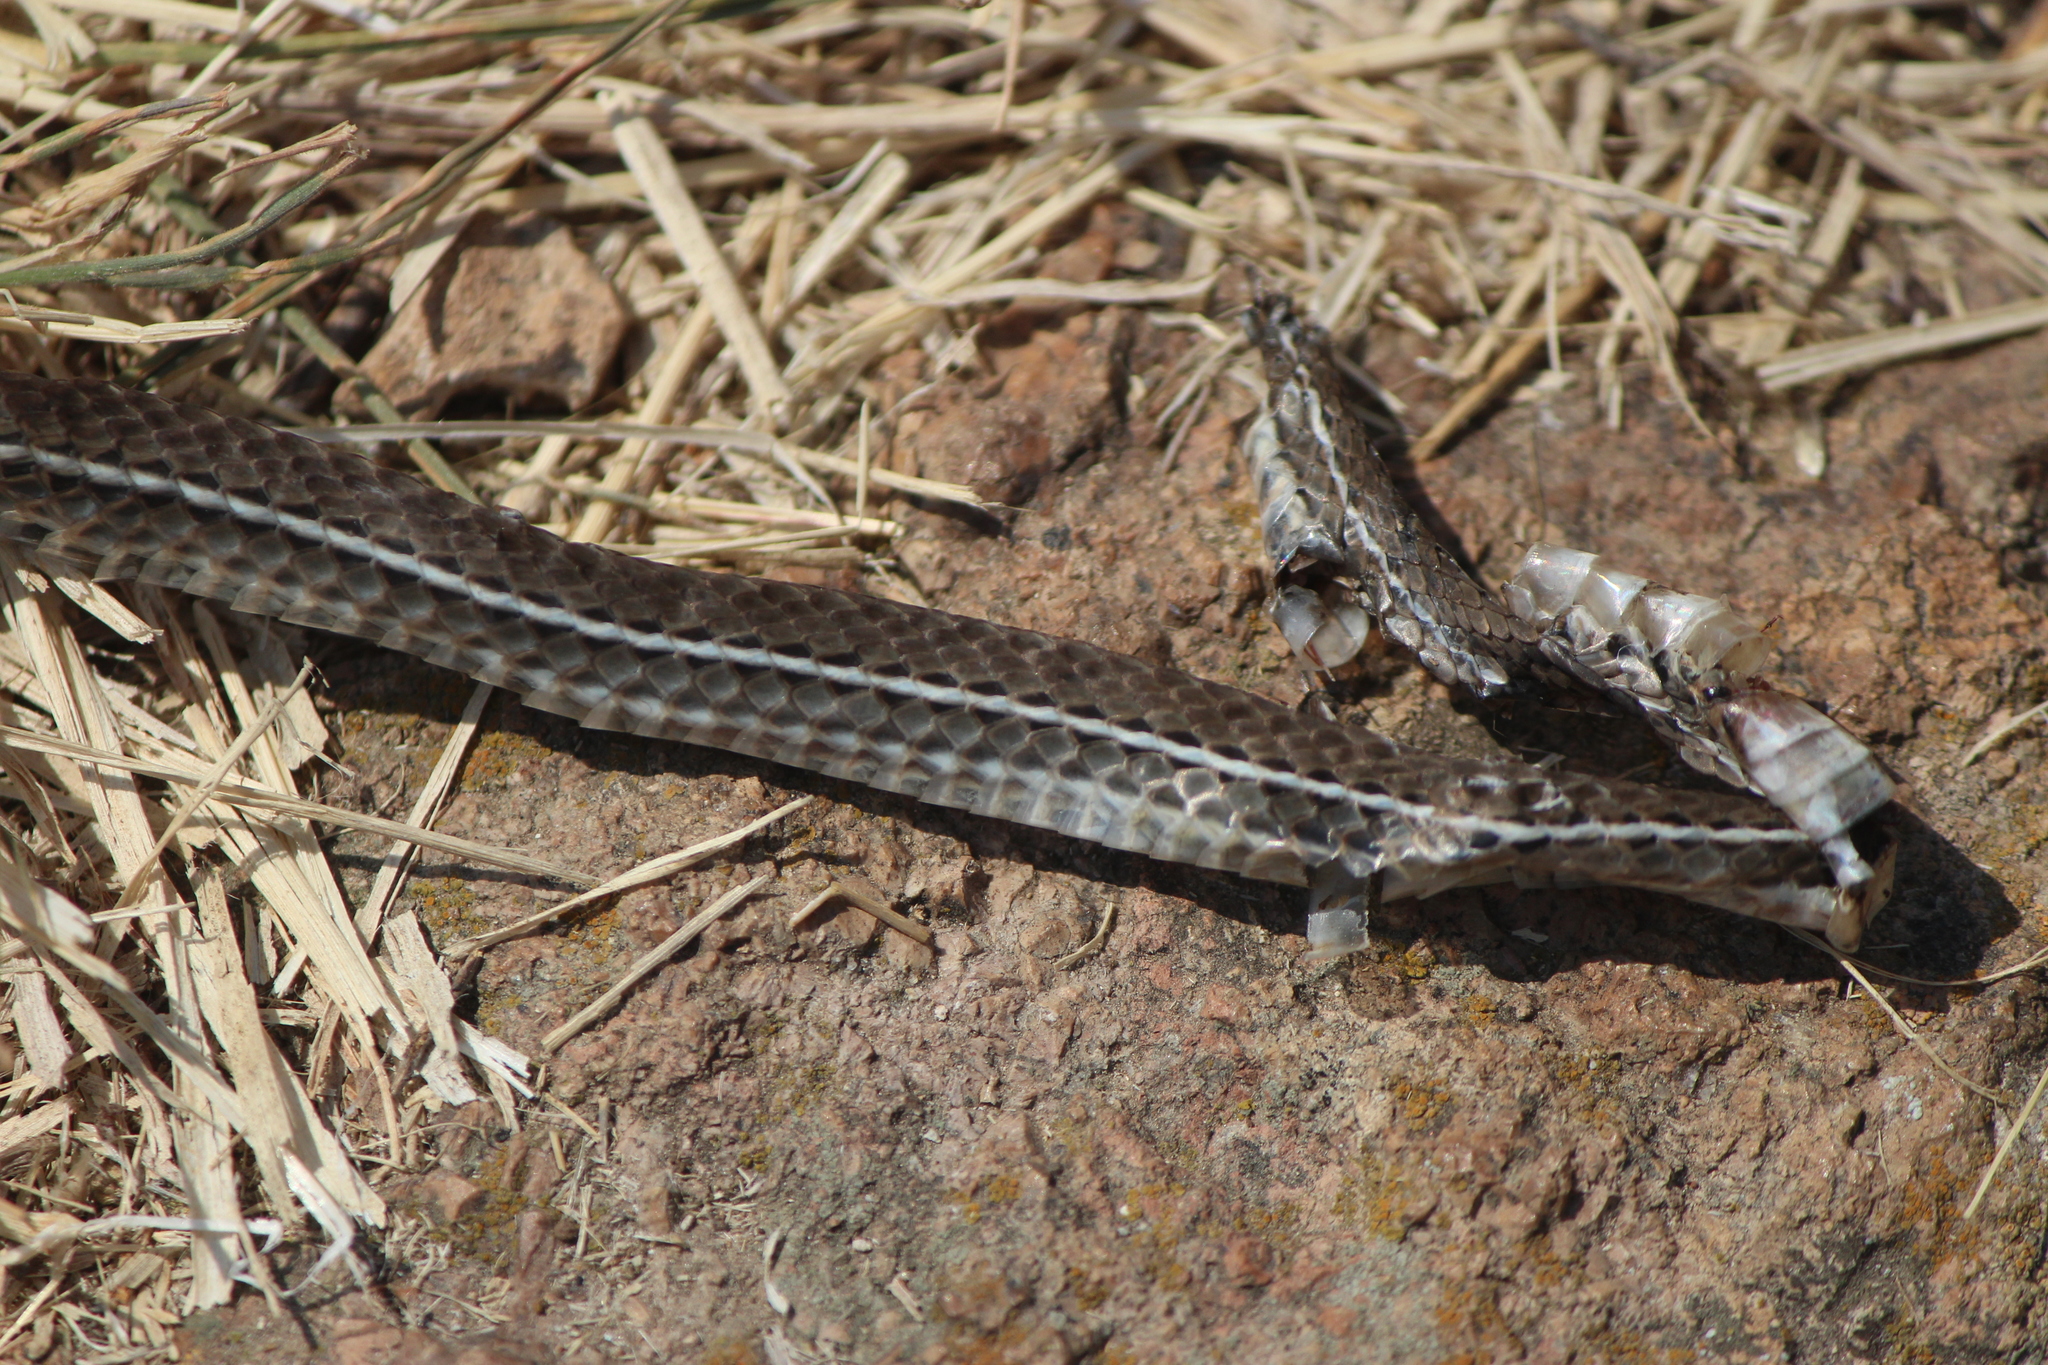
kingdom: Animalia
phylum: Chordata
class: Squamata
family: Colubridae
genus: Masticophis
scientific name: Masticophis schotti
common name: Schott's whipsnake
